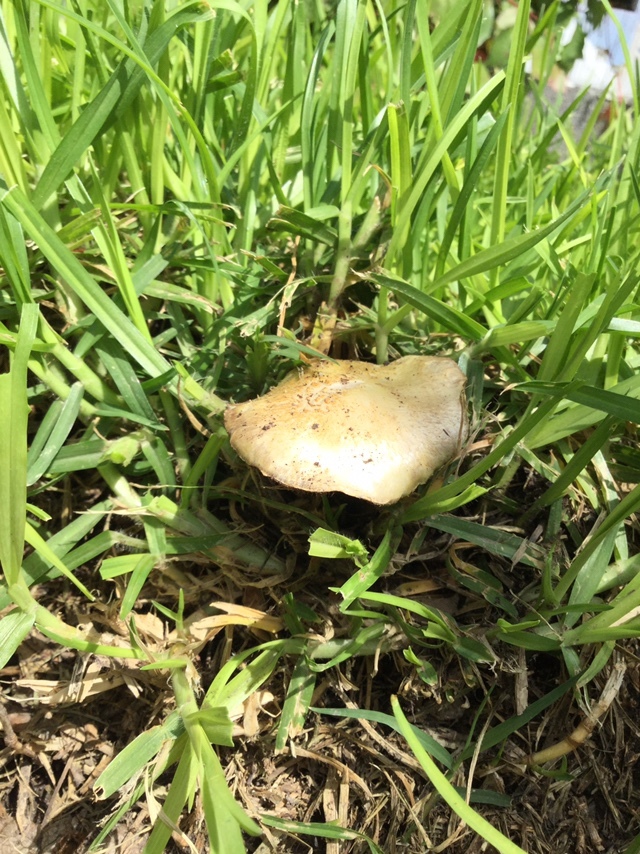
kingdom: Fungi
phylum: Basidiomycota
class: Agaricomycetes
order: Agaricales
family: Hymenogastraceae
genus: Psilocybe
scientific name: Psilocybe coronilla
